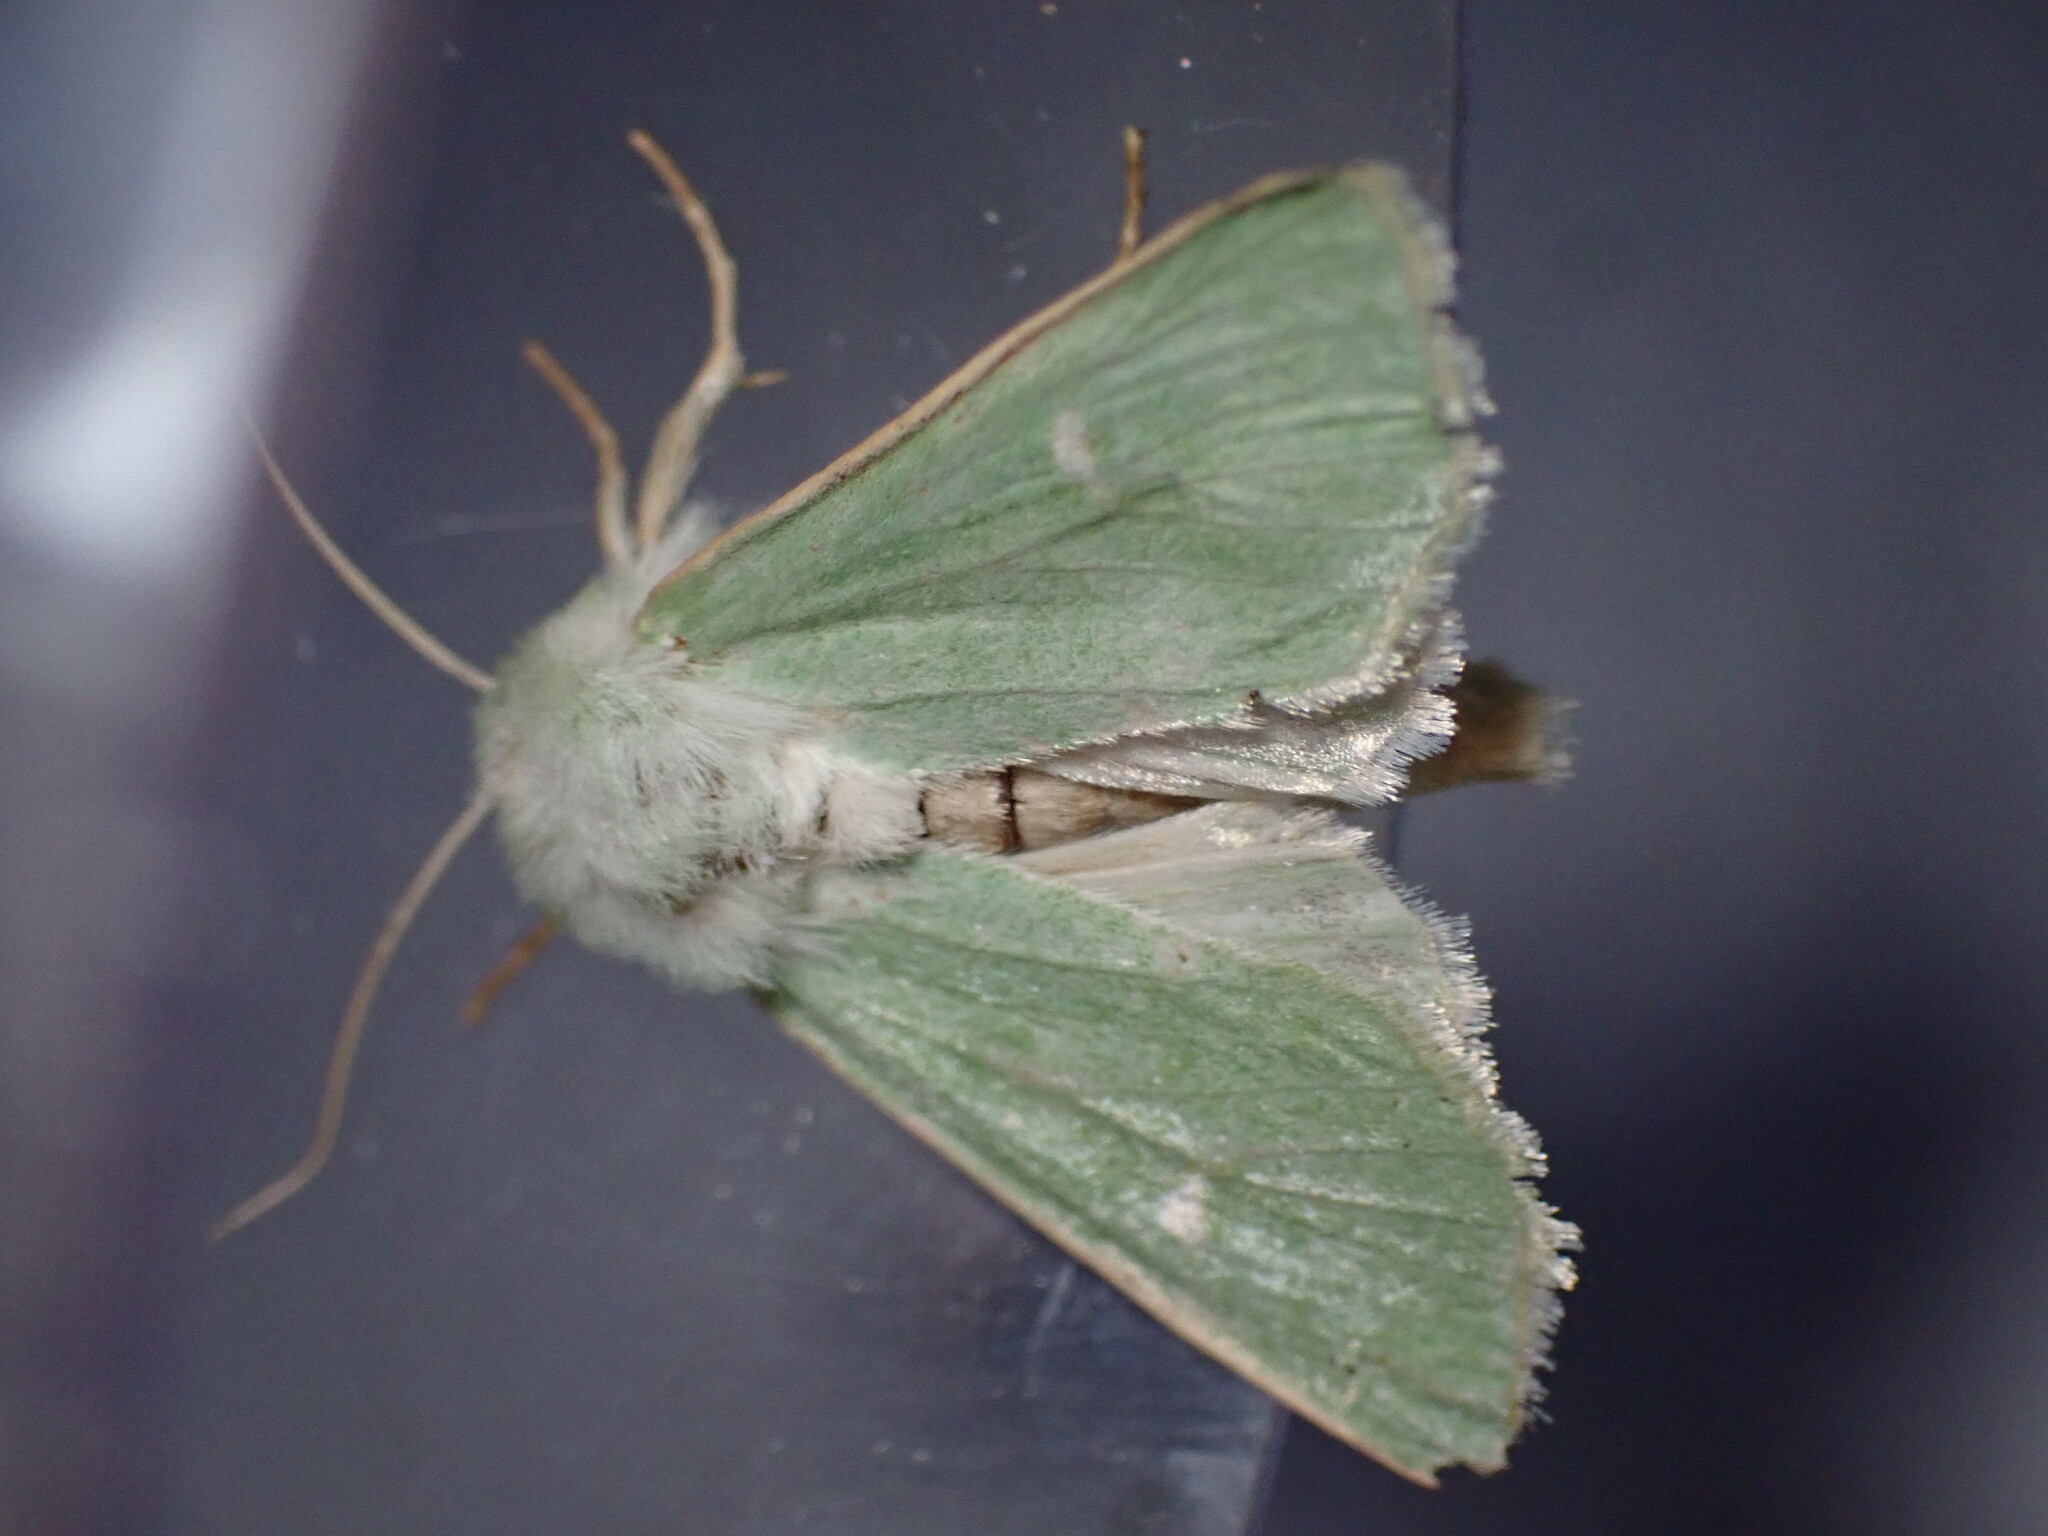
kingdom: Animalia
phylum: Arthropoda
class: Insecta
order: Lepidoptera
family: Noctuidae
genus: Calamia
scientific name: Calamia tridens
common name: Burren green
